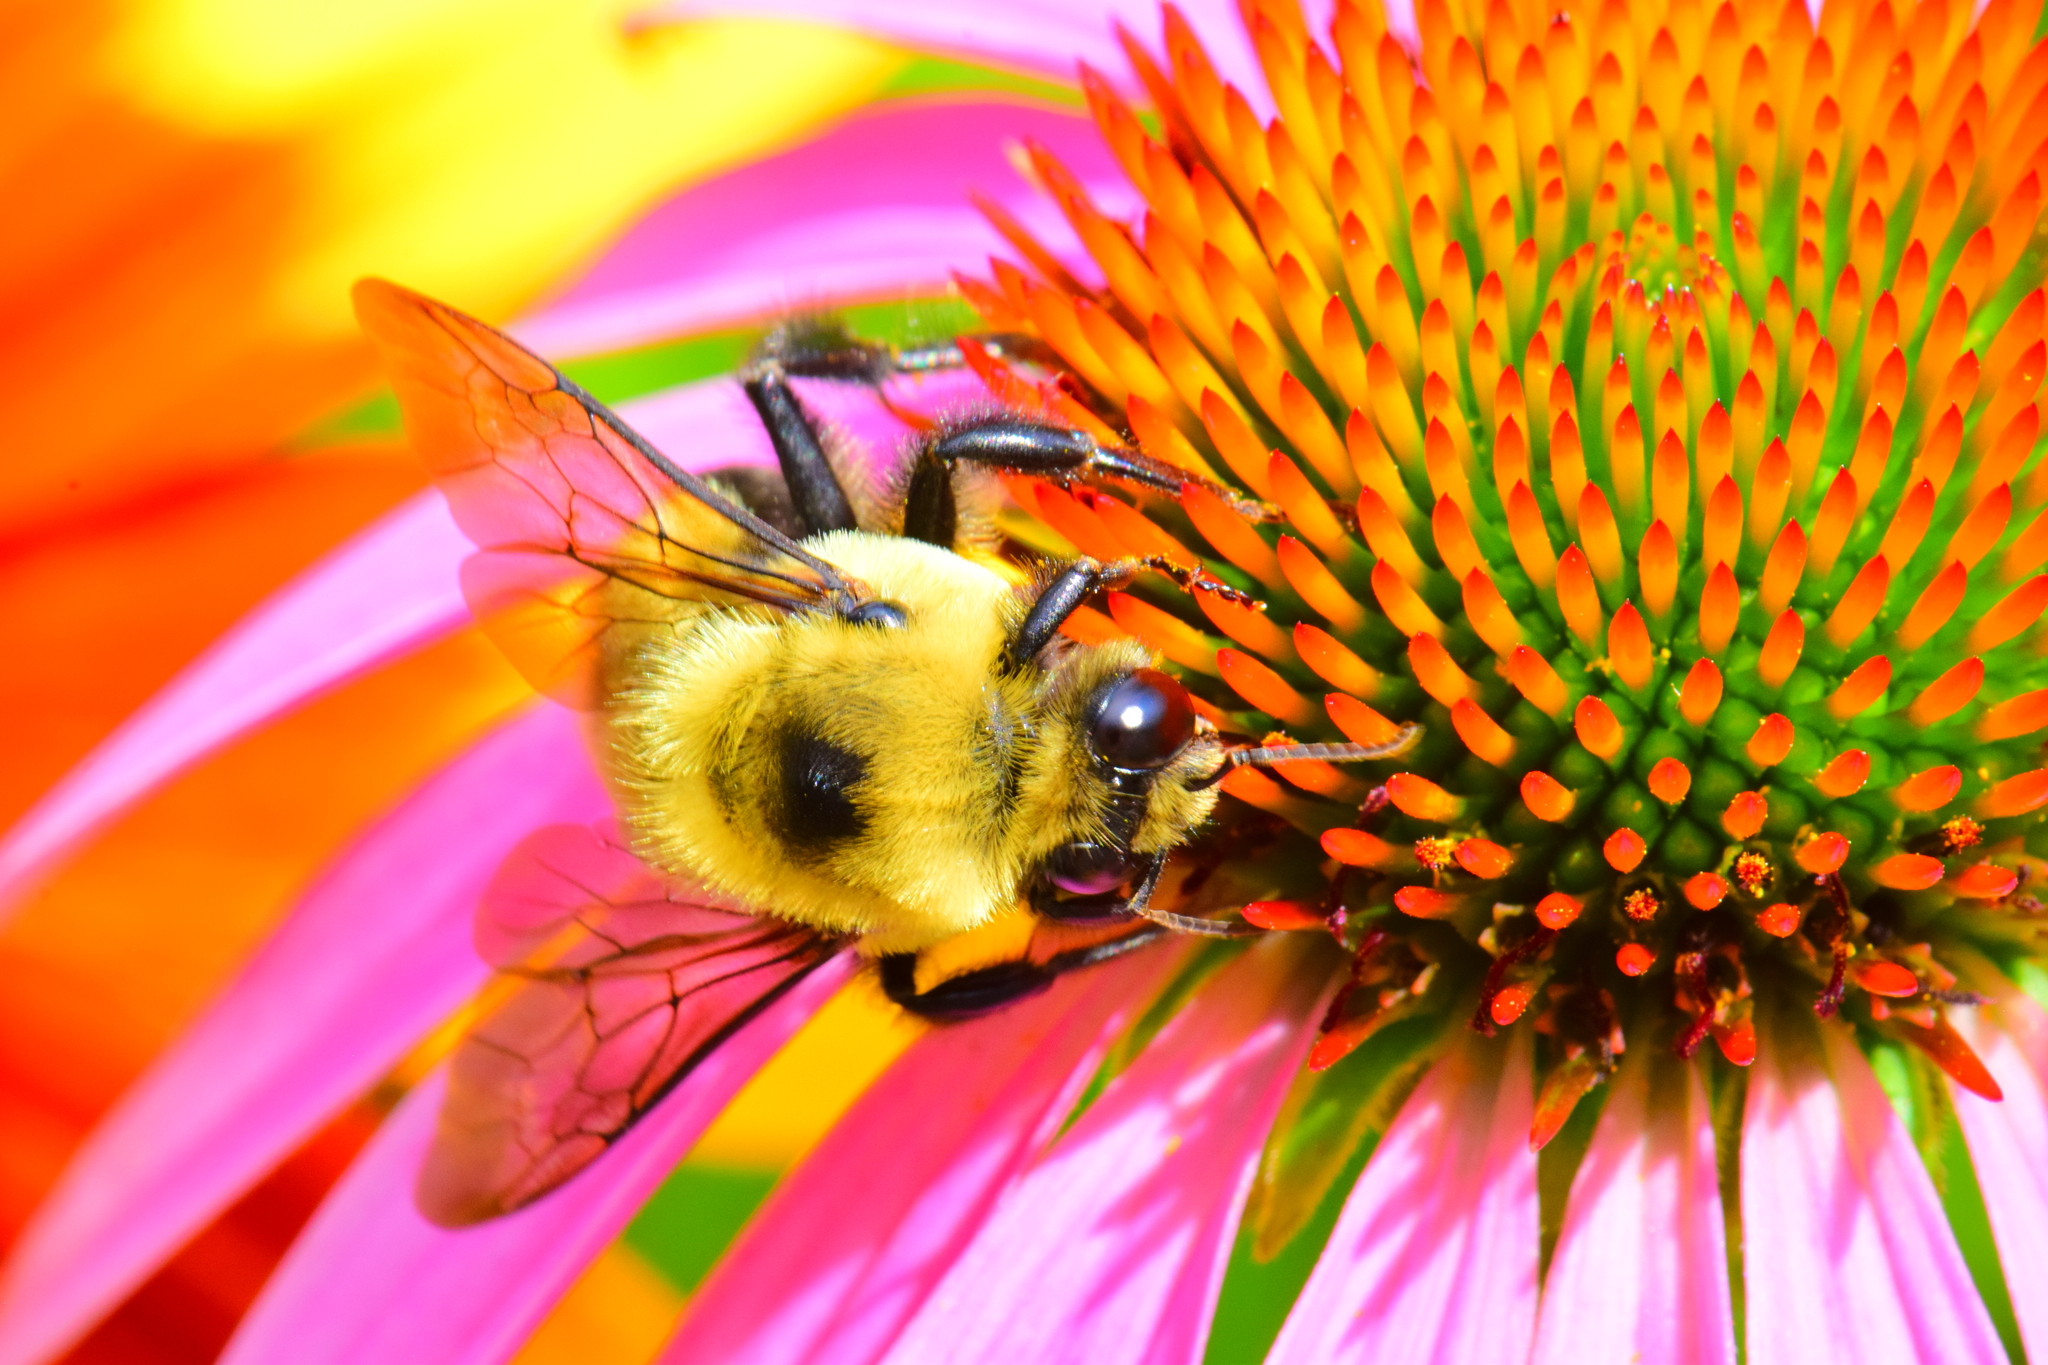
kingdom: Animalia
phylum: Arthropoda
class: Insecta
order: Hymenoptera
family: Apidae
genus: Bombus
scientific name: Bombus griseocollis
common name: Brown-belted bumble bee
